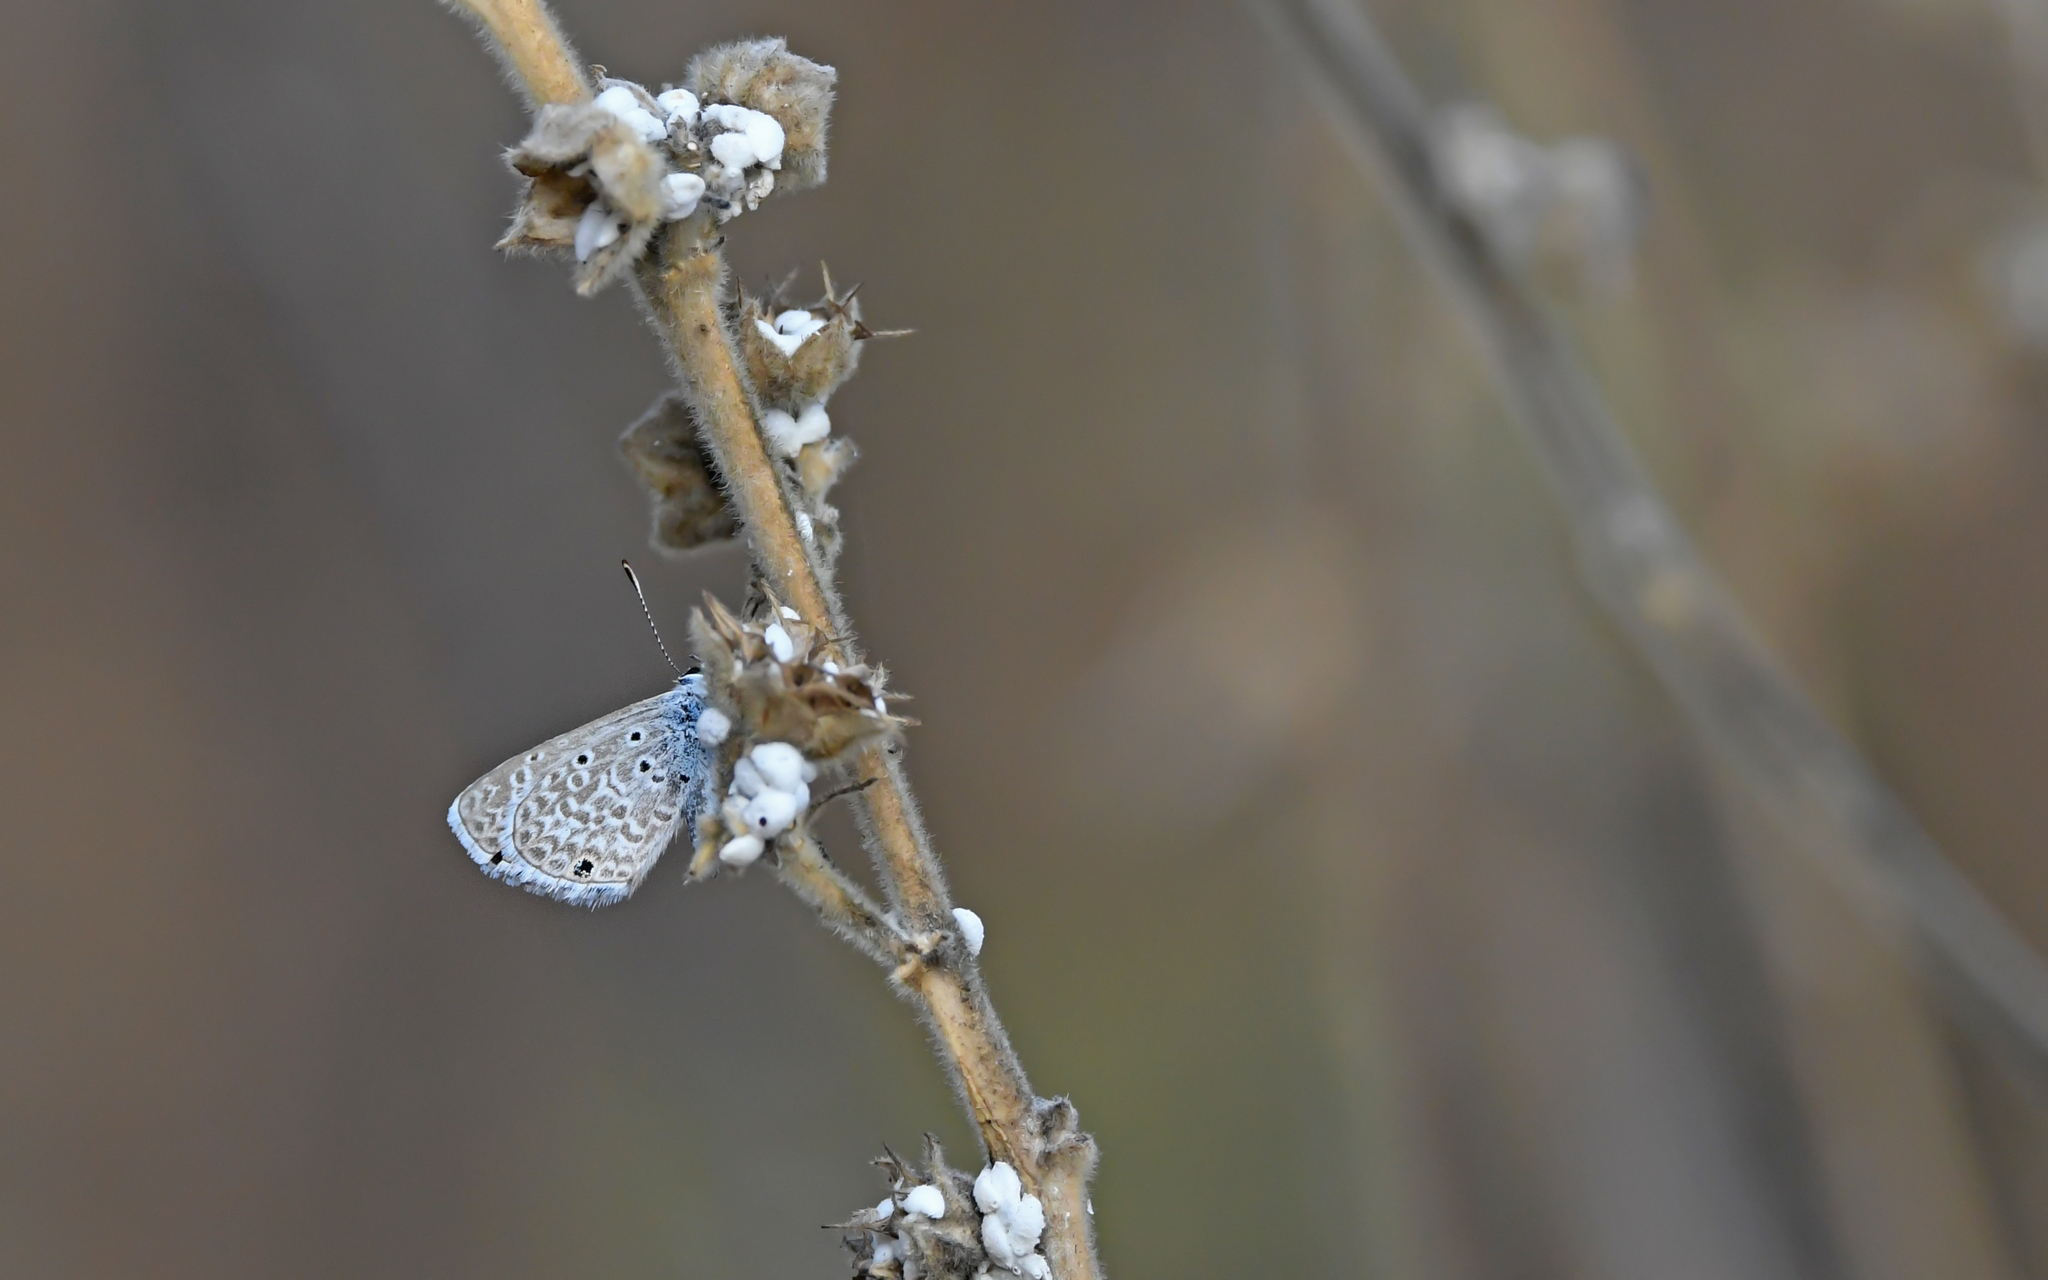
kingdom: Animalia
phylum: Arthropoda
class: Insecta
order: Lepidoptera
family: Lycaenidae
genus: Hemiargus
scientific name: Hemiargus hanno
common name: Common blue
